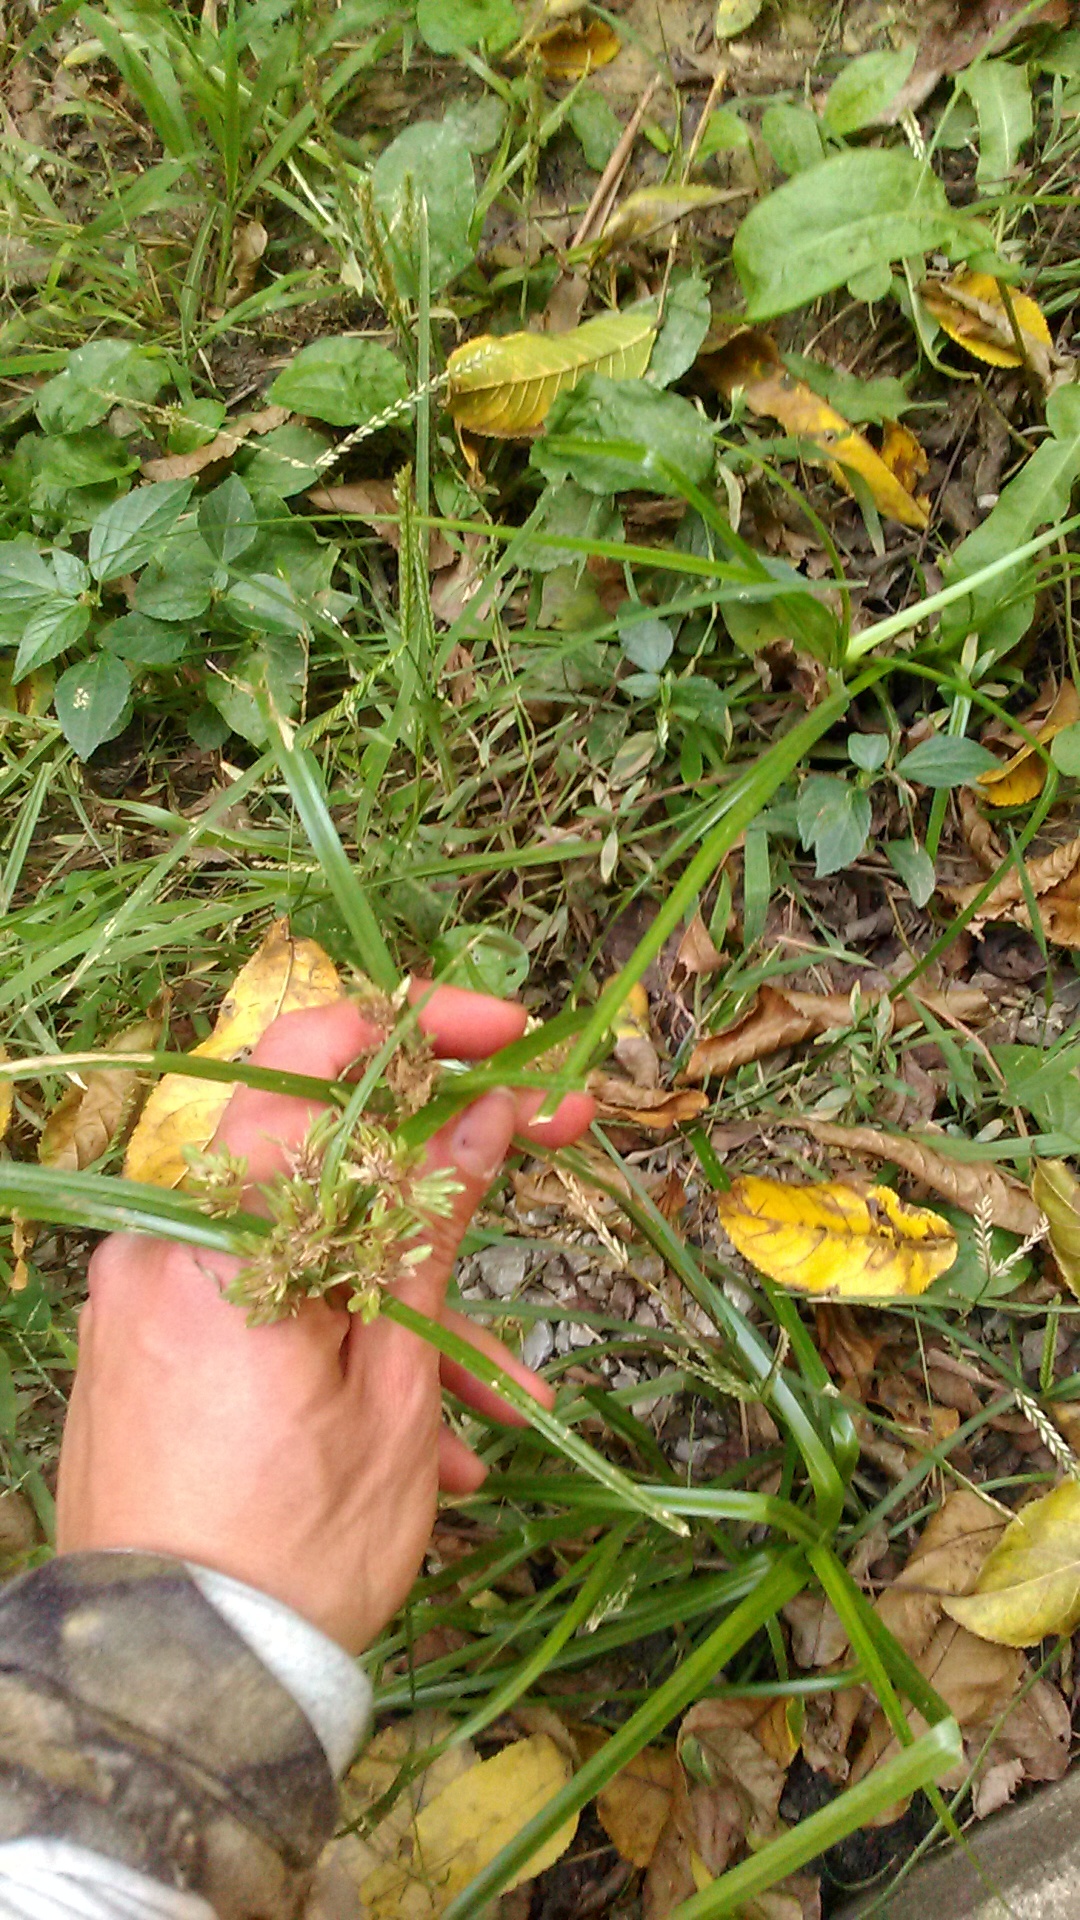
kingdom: Plantae
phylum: Tracheophyta
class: Liliopsida
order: Poales
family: Cyperaceae
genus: Cyperus
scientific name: Cyperus eragrostis
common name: Tall flatsedge
